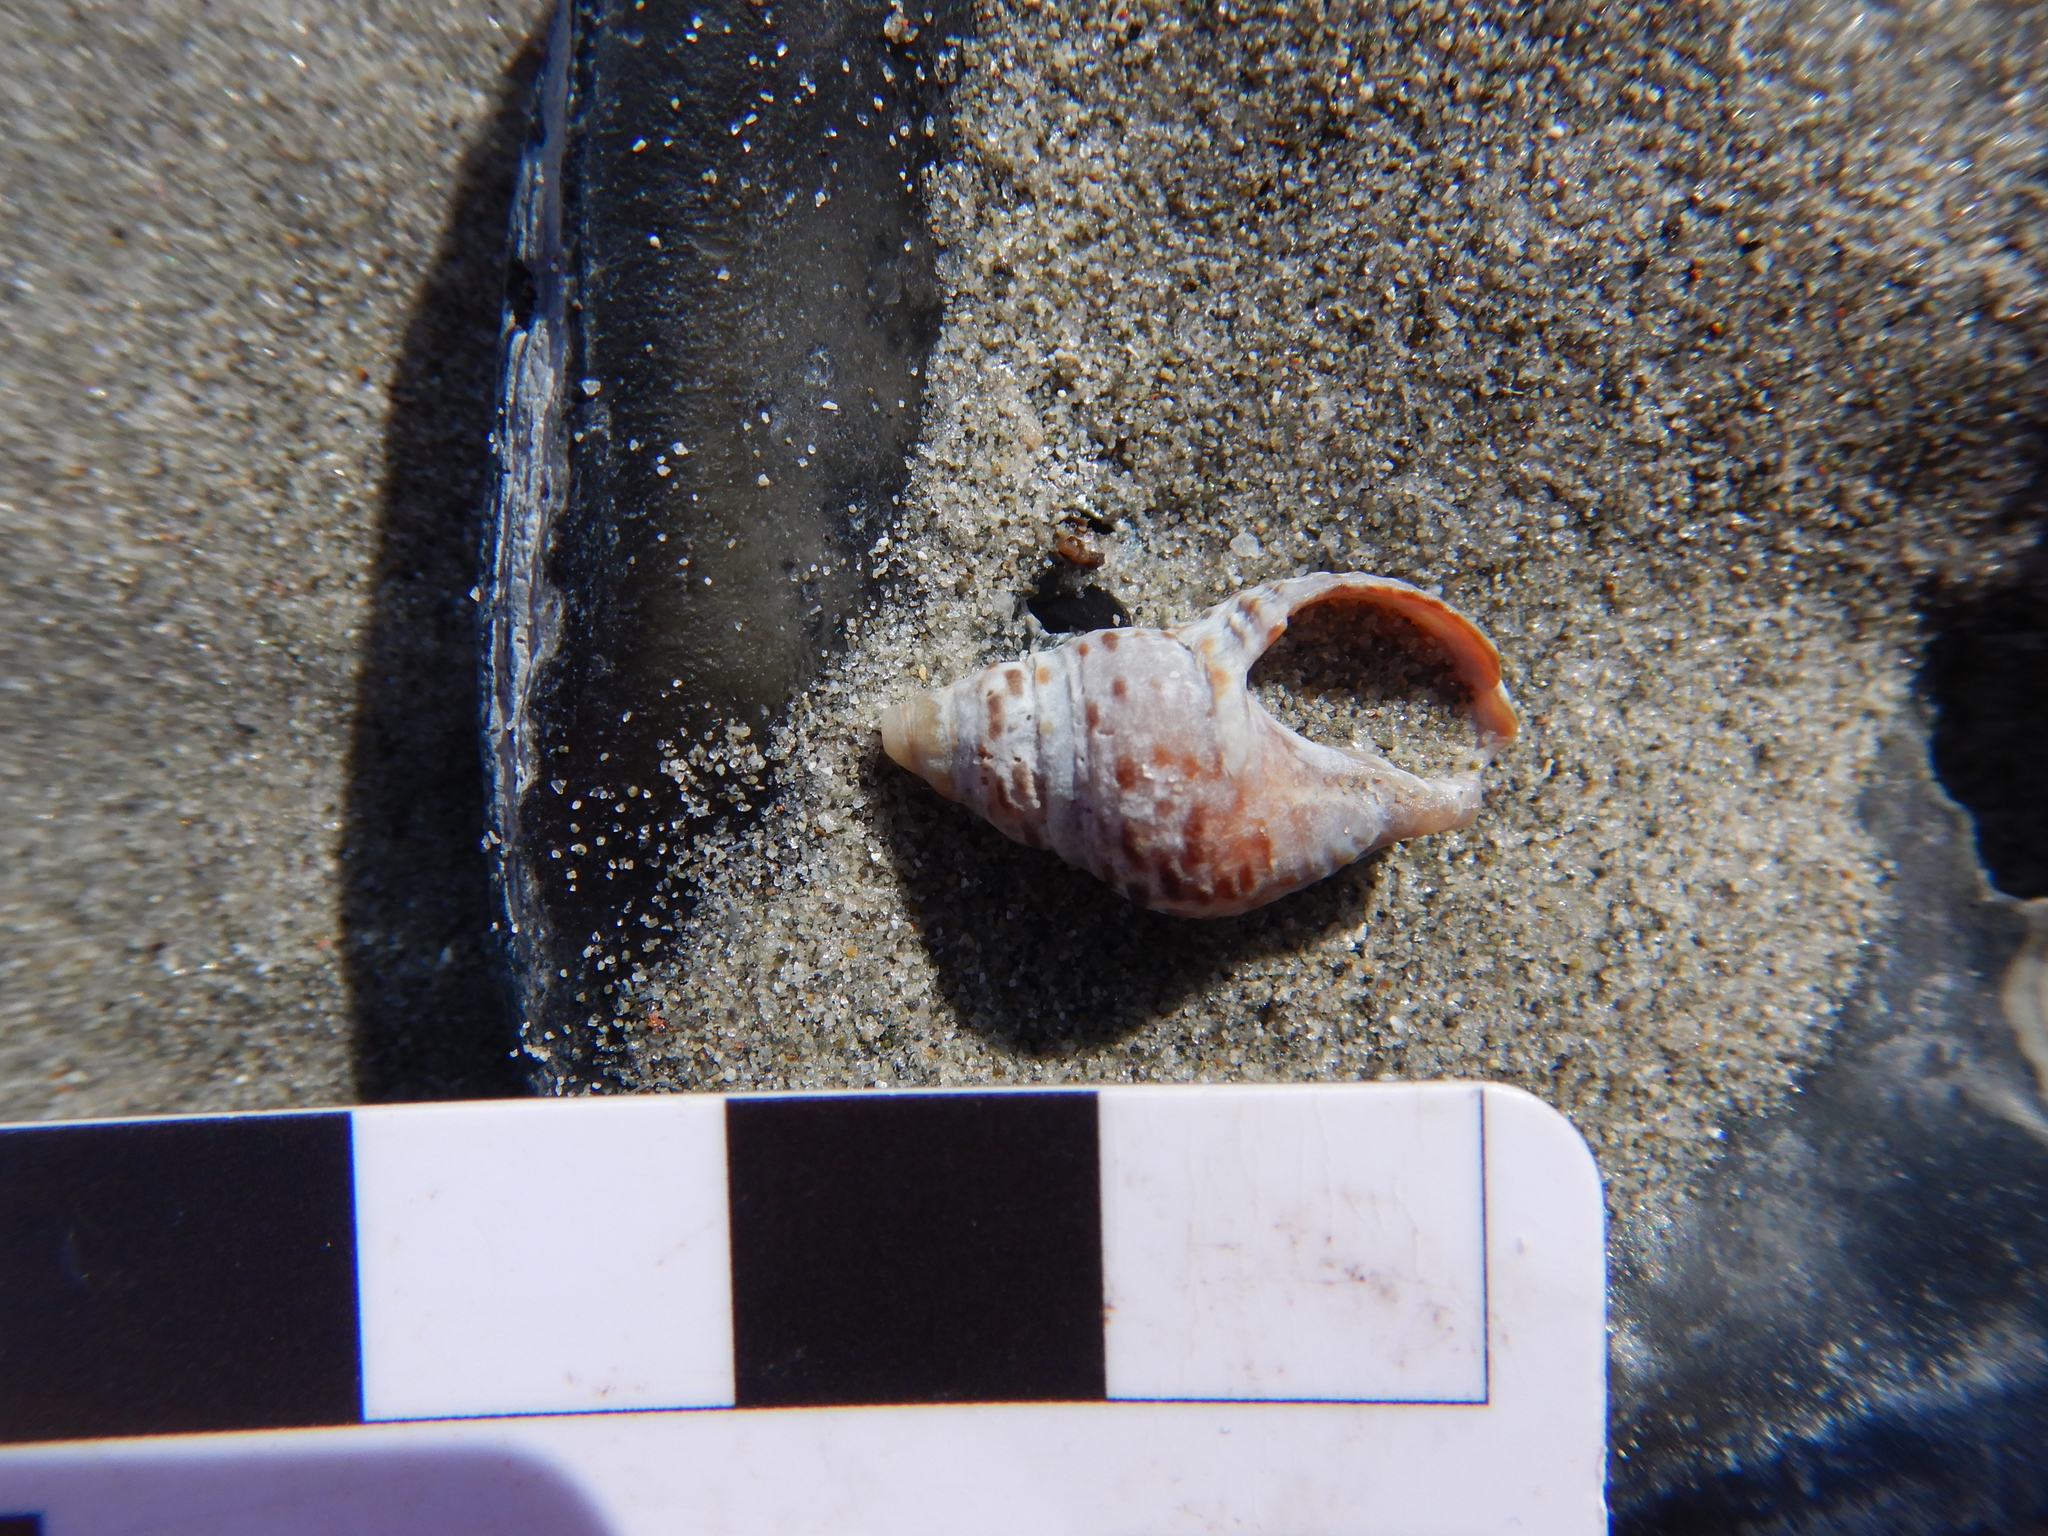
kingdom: Animalia
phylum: Mollusca
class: Gastropoda
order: Neogastropoda
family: Cominellidae
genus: Cominella
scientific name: Cominella lineolata
